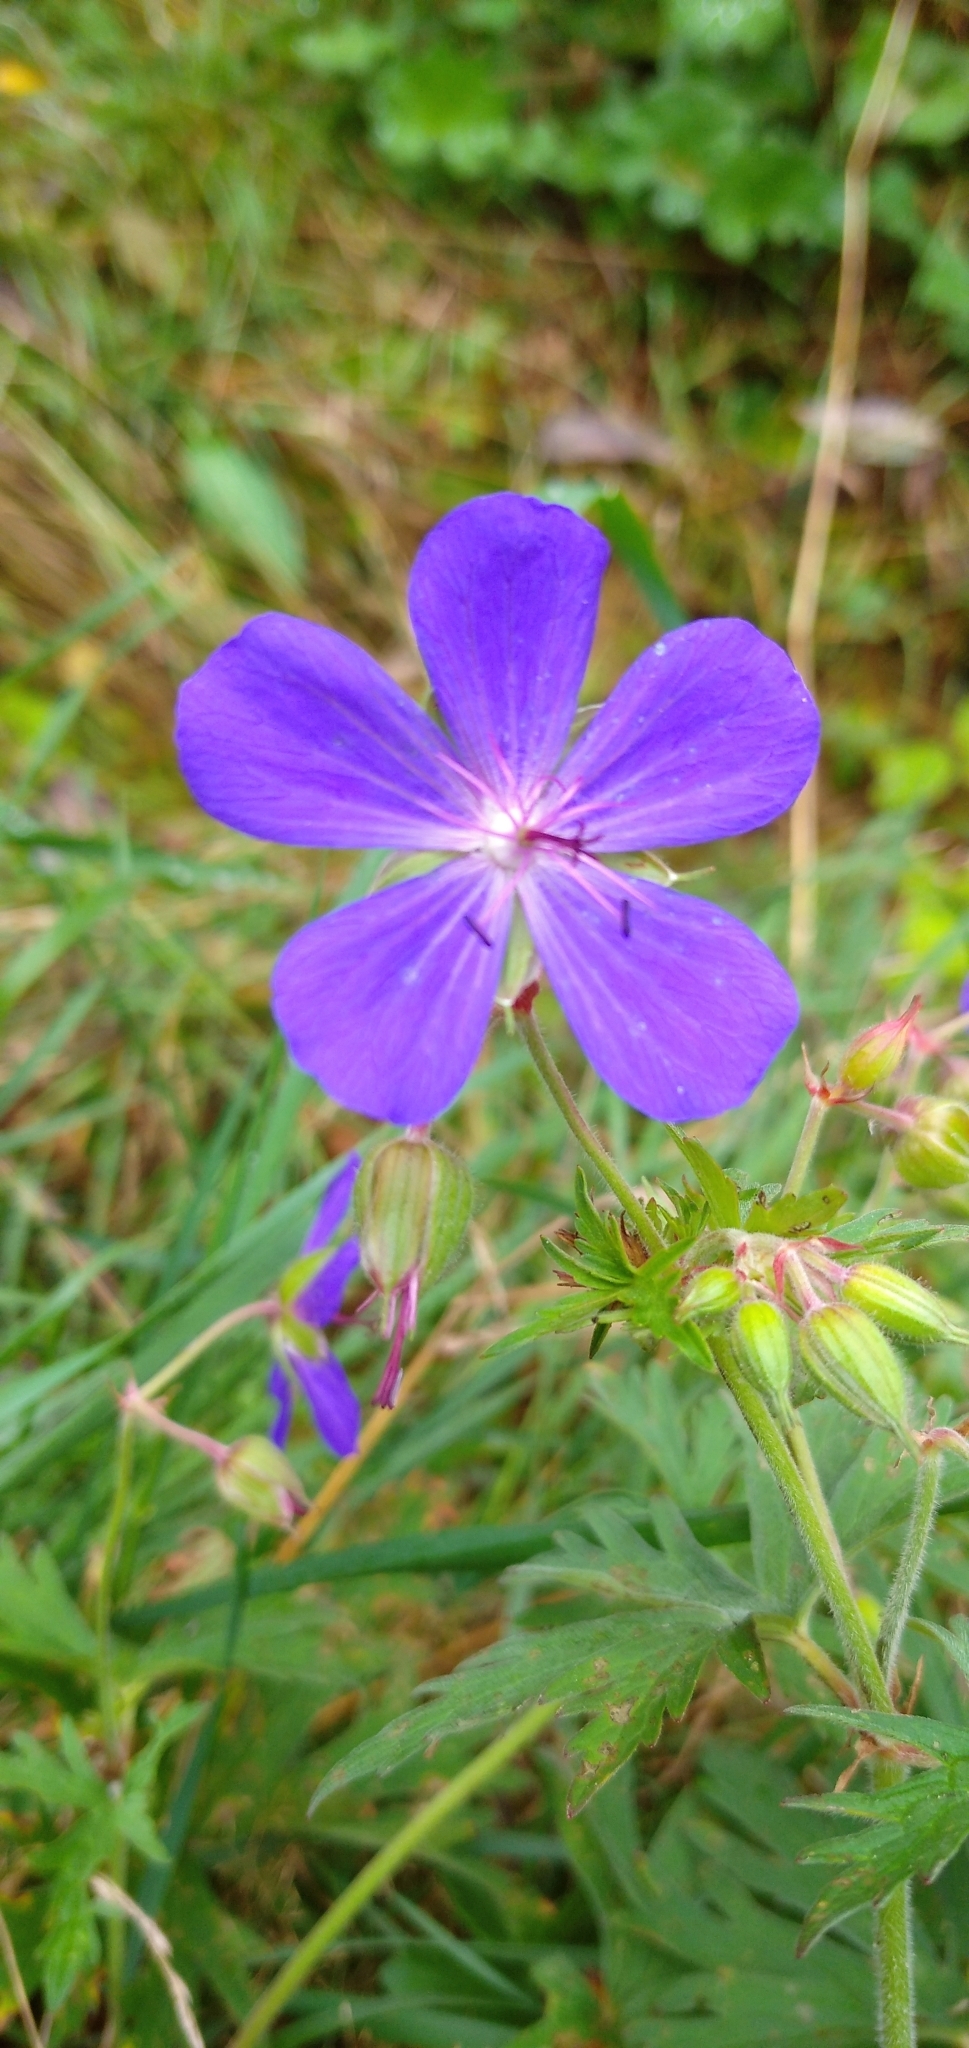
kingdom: Plantae
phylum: Tracheophyta
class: Magnoliopsida
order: Geraniales
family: Geraniaceae
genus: Geranium
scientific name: Geranium pratense
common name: Meadow crane's-bill
